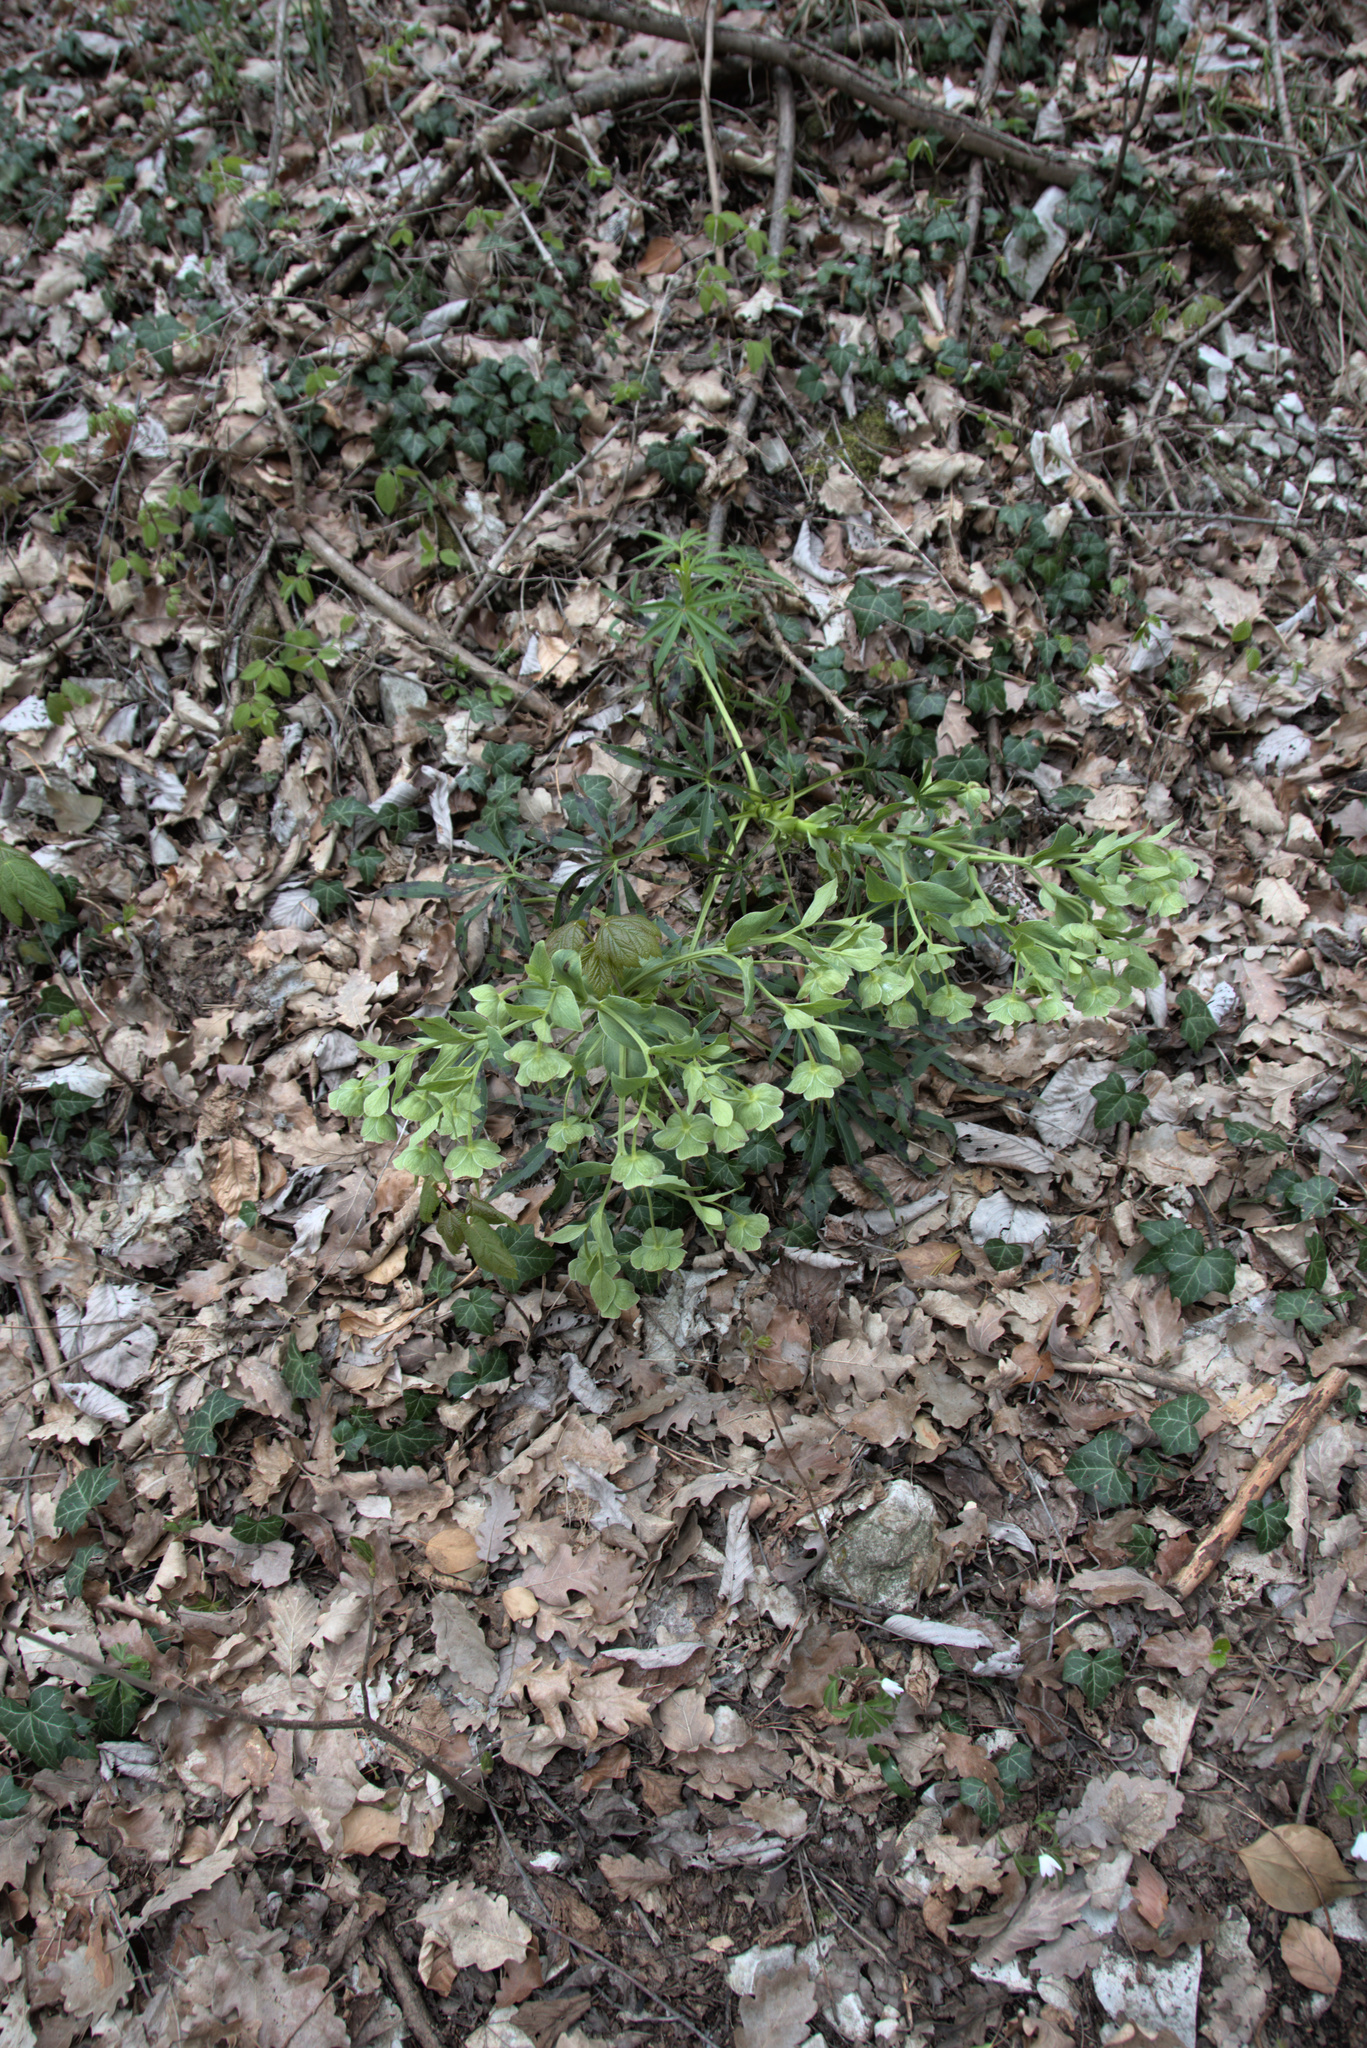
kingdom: Plantae
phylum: Tracheophyta
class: Magnoliopsida
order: Ranunculales
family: Ranunculaceae
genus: Helleborus
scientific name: Helleborus foetidus
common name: Stinking hellebore
